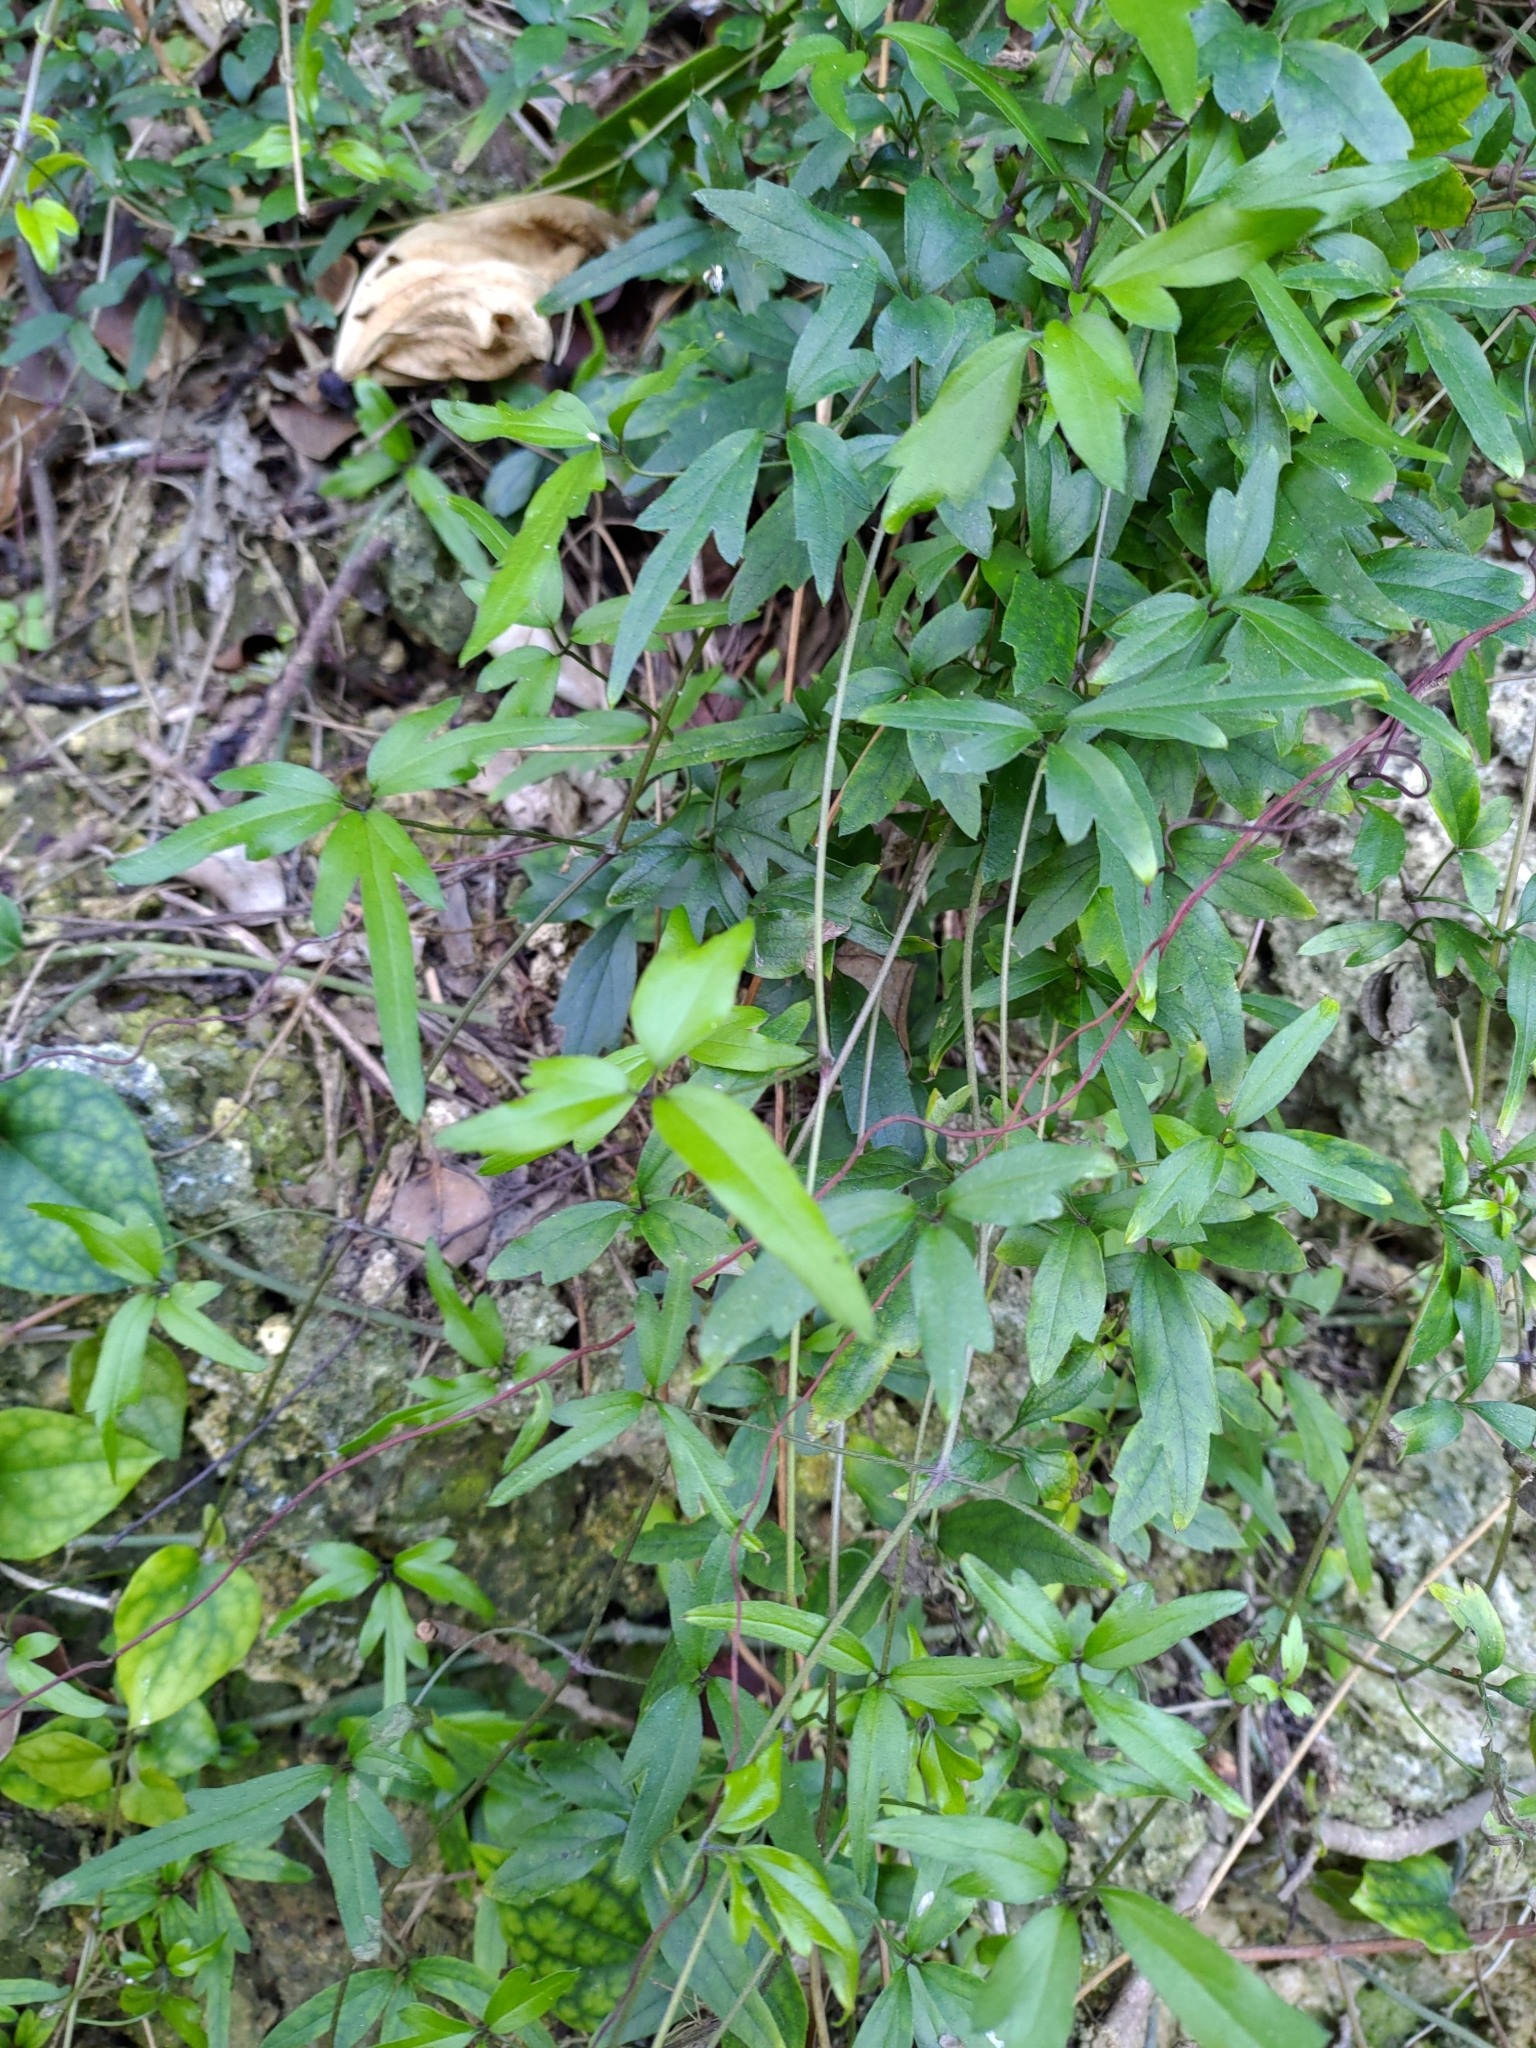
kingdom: Plantae
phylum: Tracheophyta
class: Magnoliopsida
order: Ranunculales
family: Ranunculaceae
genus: Clematis
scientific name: Clematis formosana
